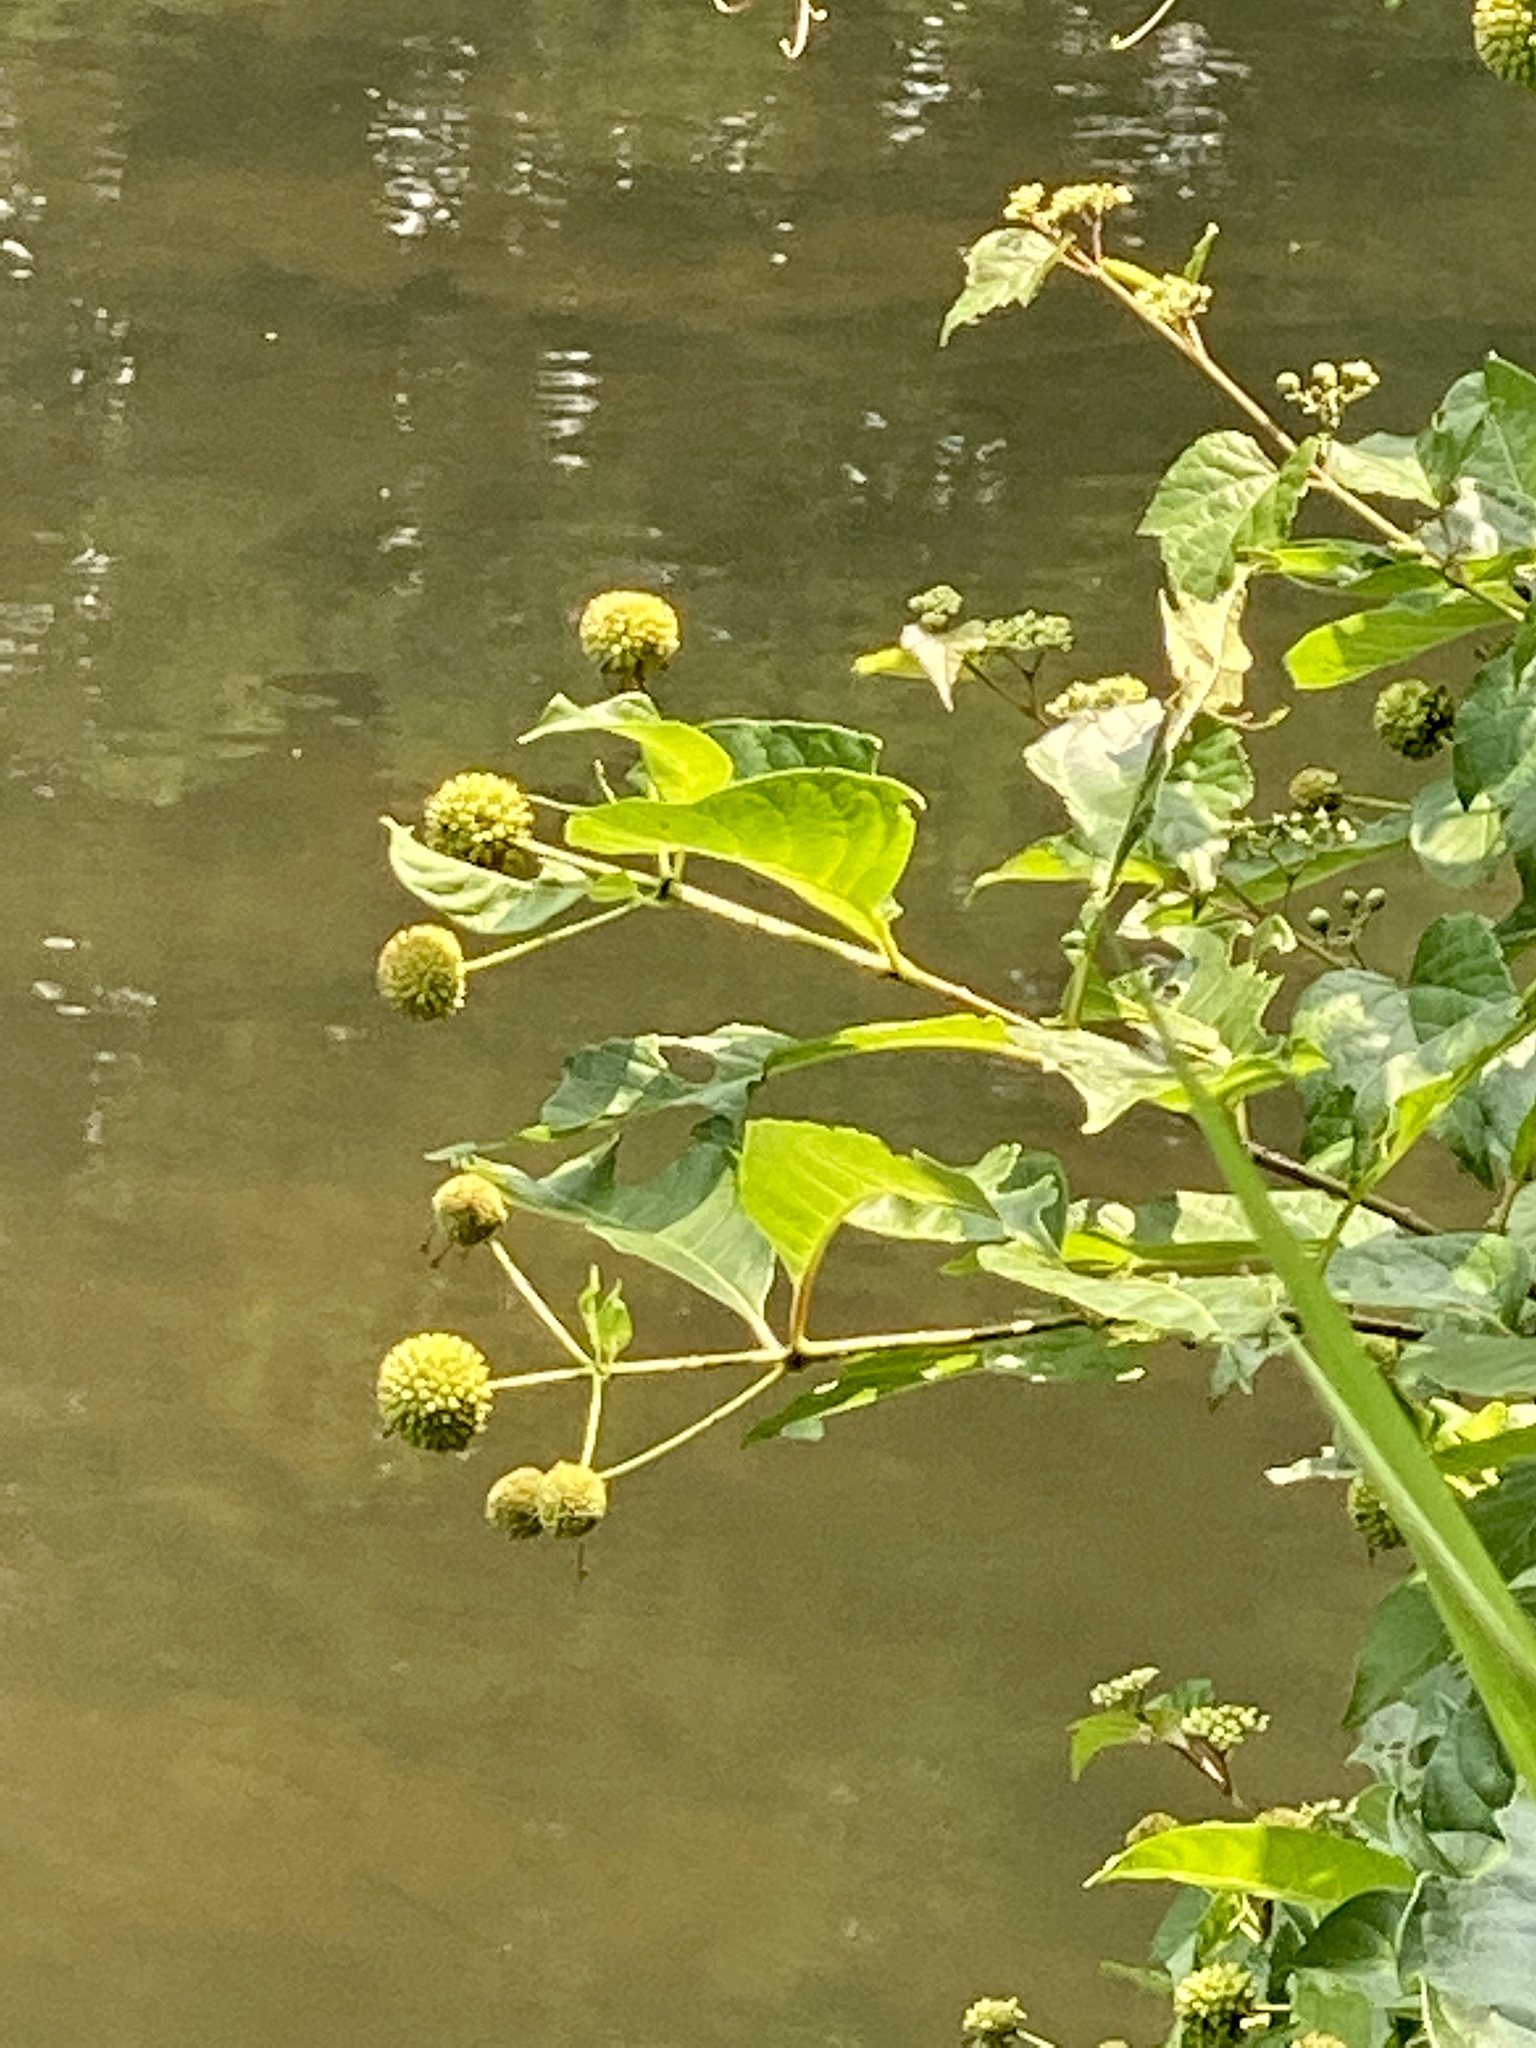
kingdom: Plantae
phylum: Tracheophyta
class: Magnoliopsida
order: Gentianales
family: Rubiaceae
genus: Cephalanthus
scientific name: Cephalanthus occidentalis
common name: Button-willow
